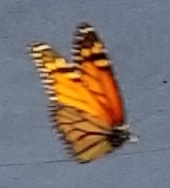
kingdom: Animalia
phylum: Arthropoda
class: Insecta
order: Lepidoptera
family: Nymphalidae
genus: Danaus
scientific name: Danaus plexippus
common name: Monarch
